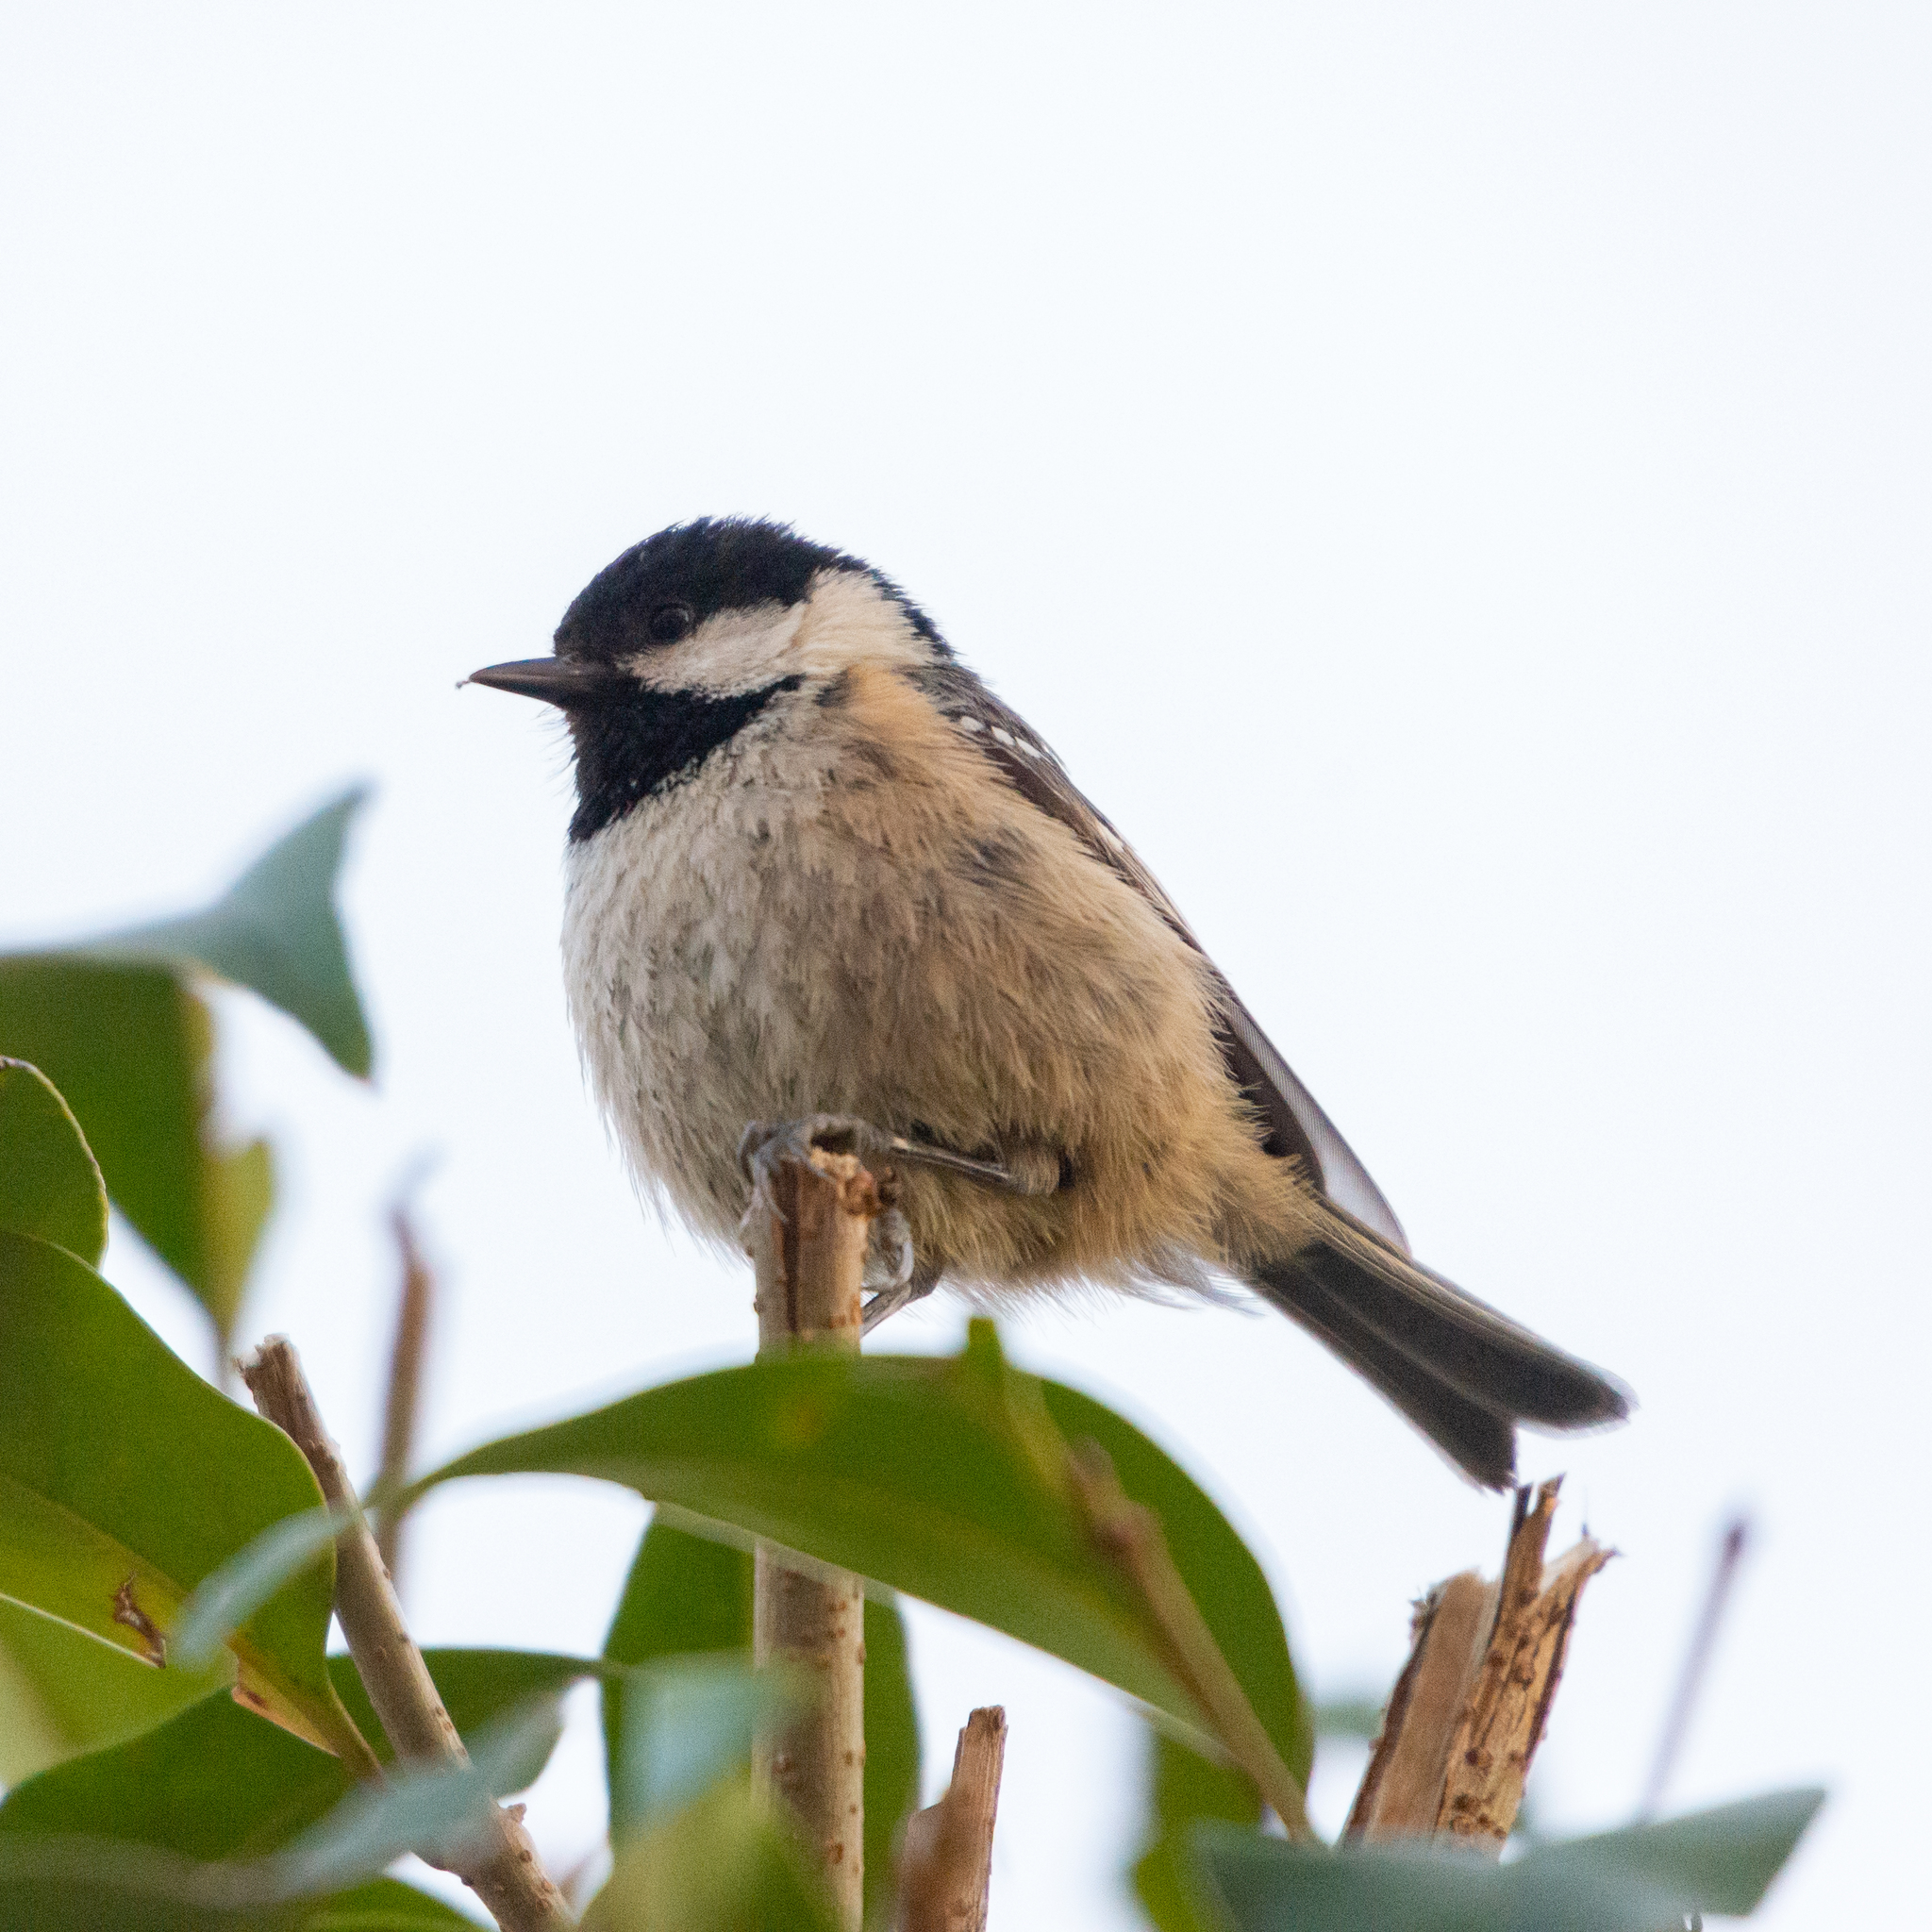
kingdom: Animalia
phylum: Chordata
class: Aves
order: Passeriformes
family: Paridae
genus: Periparus
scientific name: Periparus ater
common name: Coal tit
